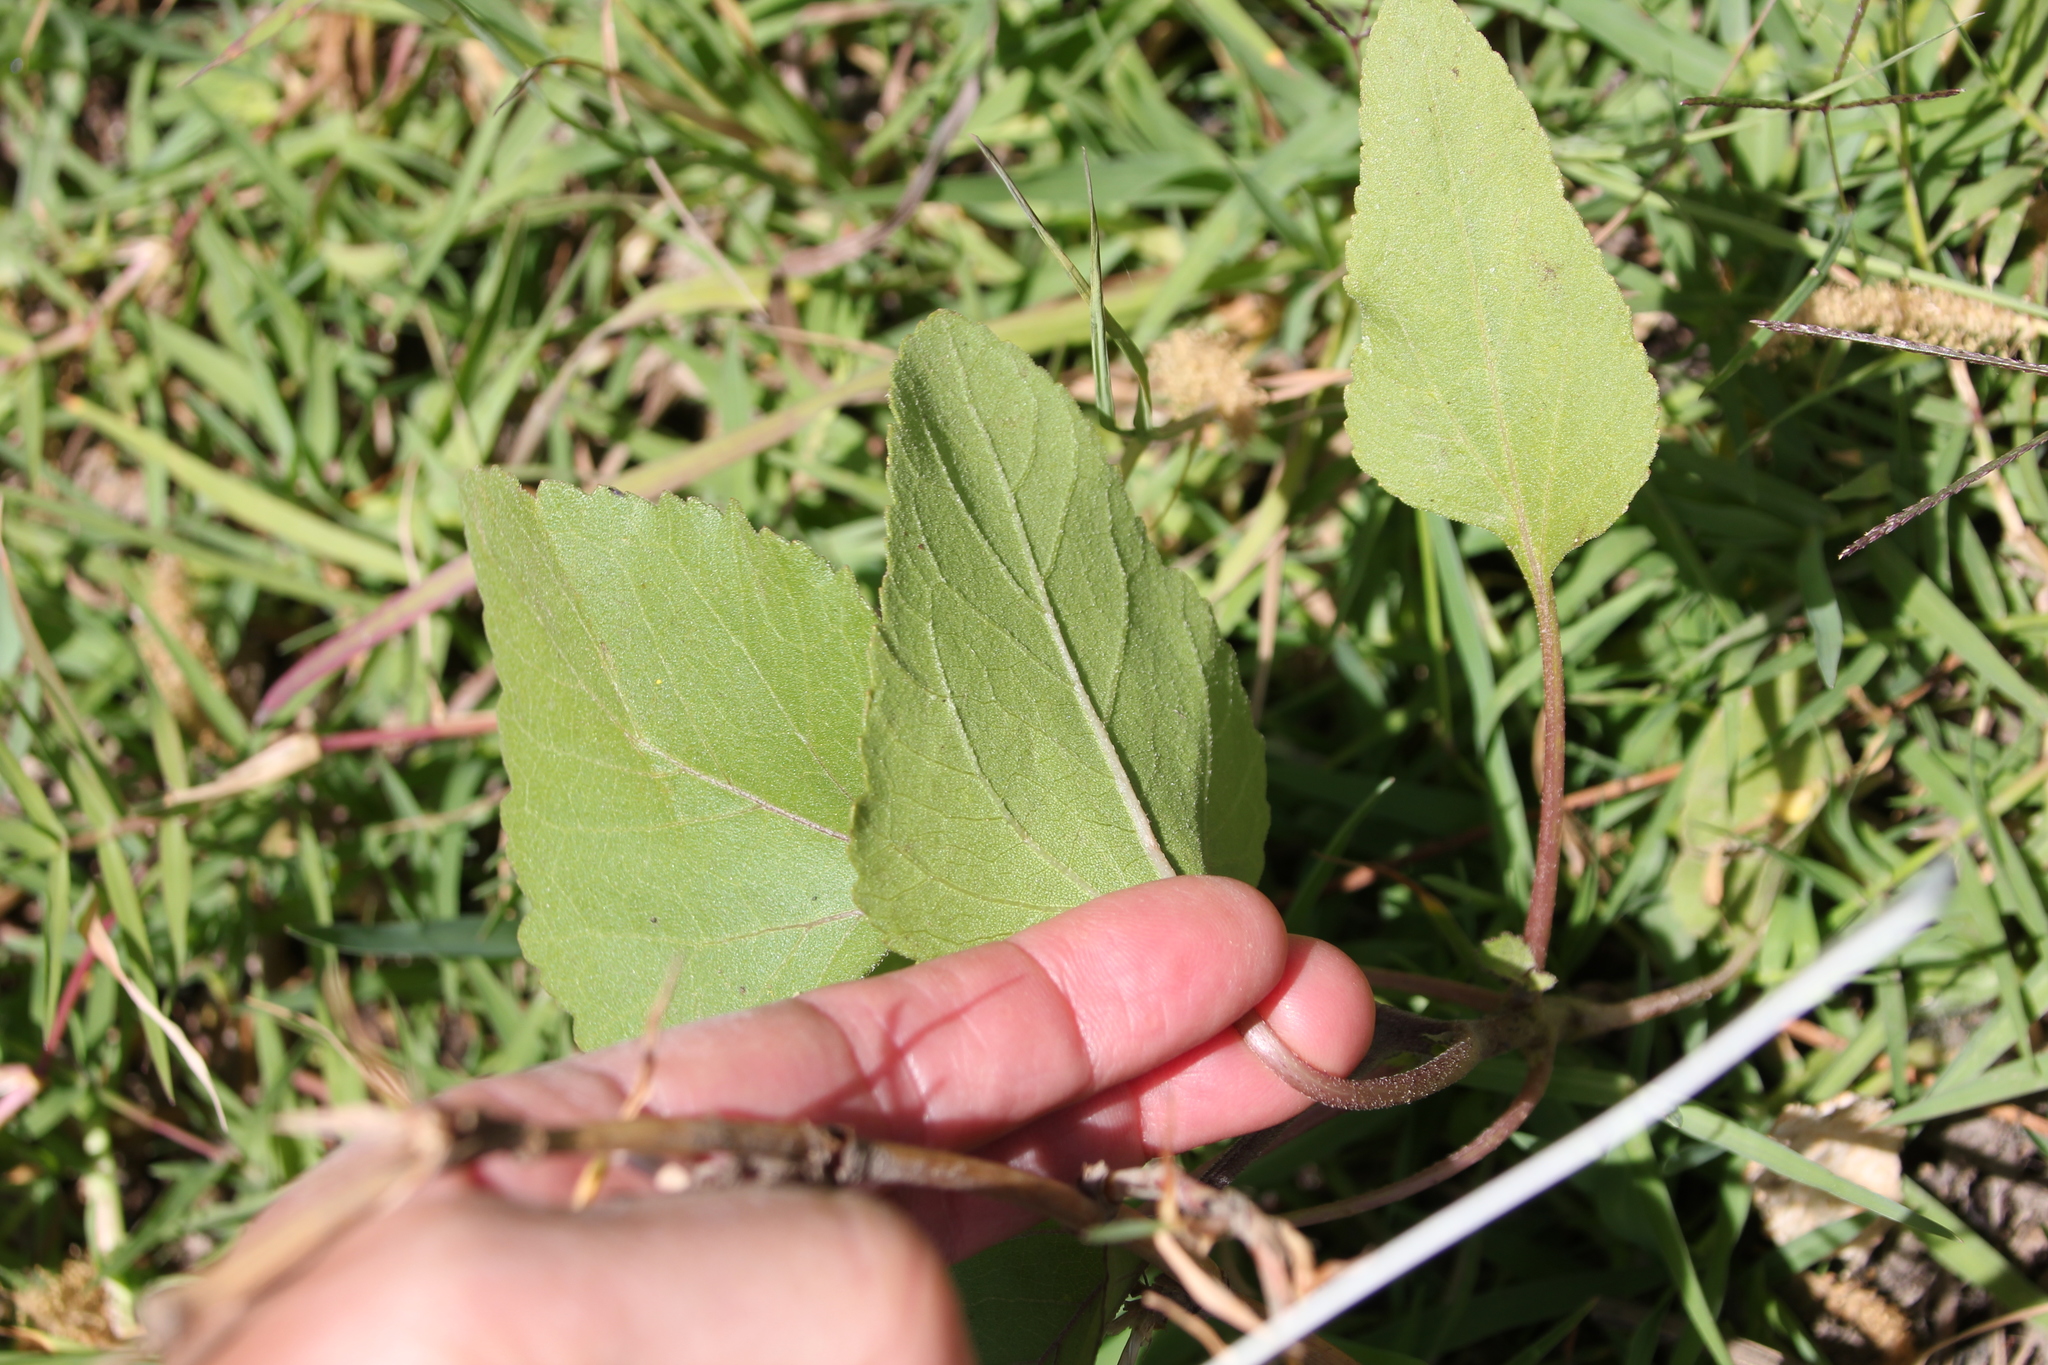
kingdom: Plantae
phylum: Tracheophyta
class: Magnoliopsida
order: Asterales
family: Asteraceae
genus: Xanthium
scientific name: Xanthium strumarium
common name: Rough cocklebur
